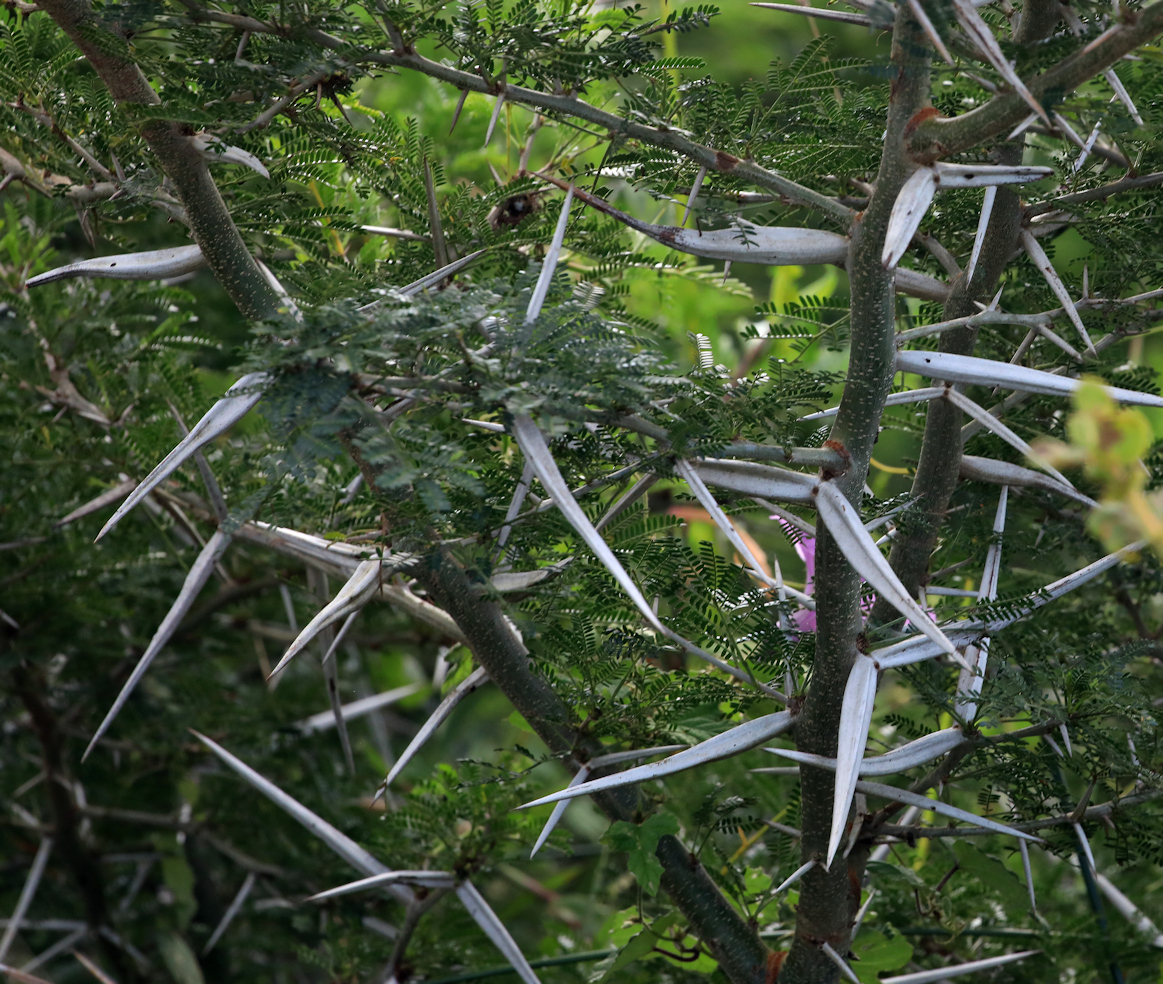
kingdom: Plantae
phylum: Tracheophyta
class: Magnoliopsida
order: Fabales
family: Fabaceae
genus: Vachellia
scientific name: Vachellia kosiensis
